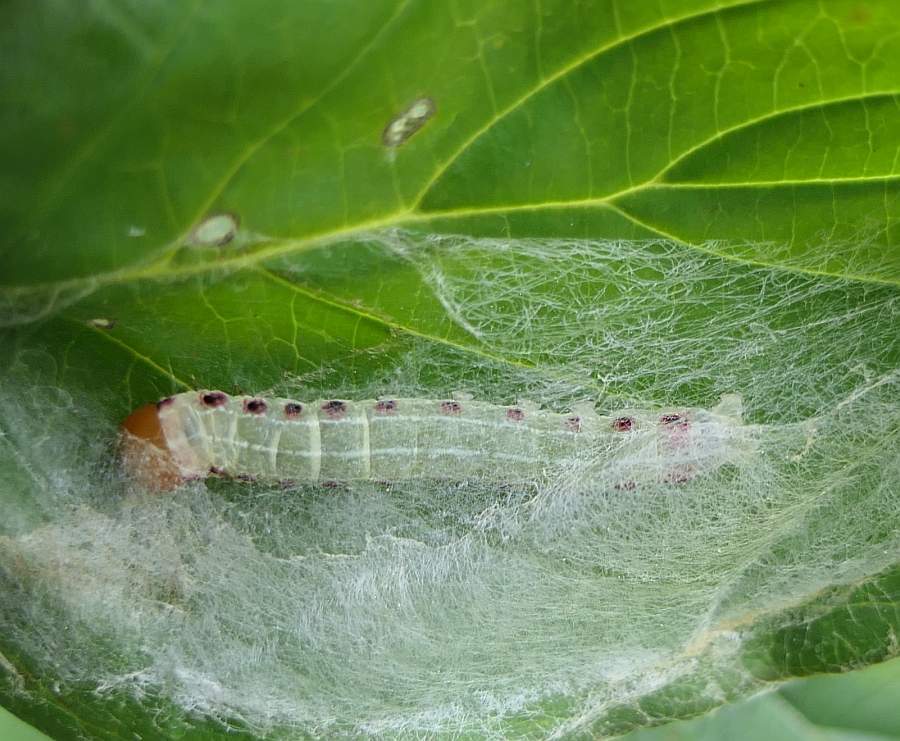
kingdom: Animalia
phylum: Arthropoda
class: Insecta
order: Lepidoptera
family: Noctuidae
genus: Achatia
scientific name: Achatia confusa
